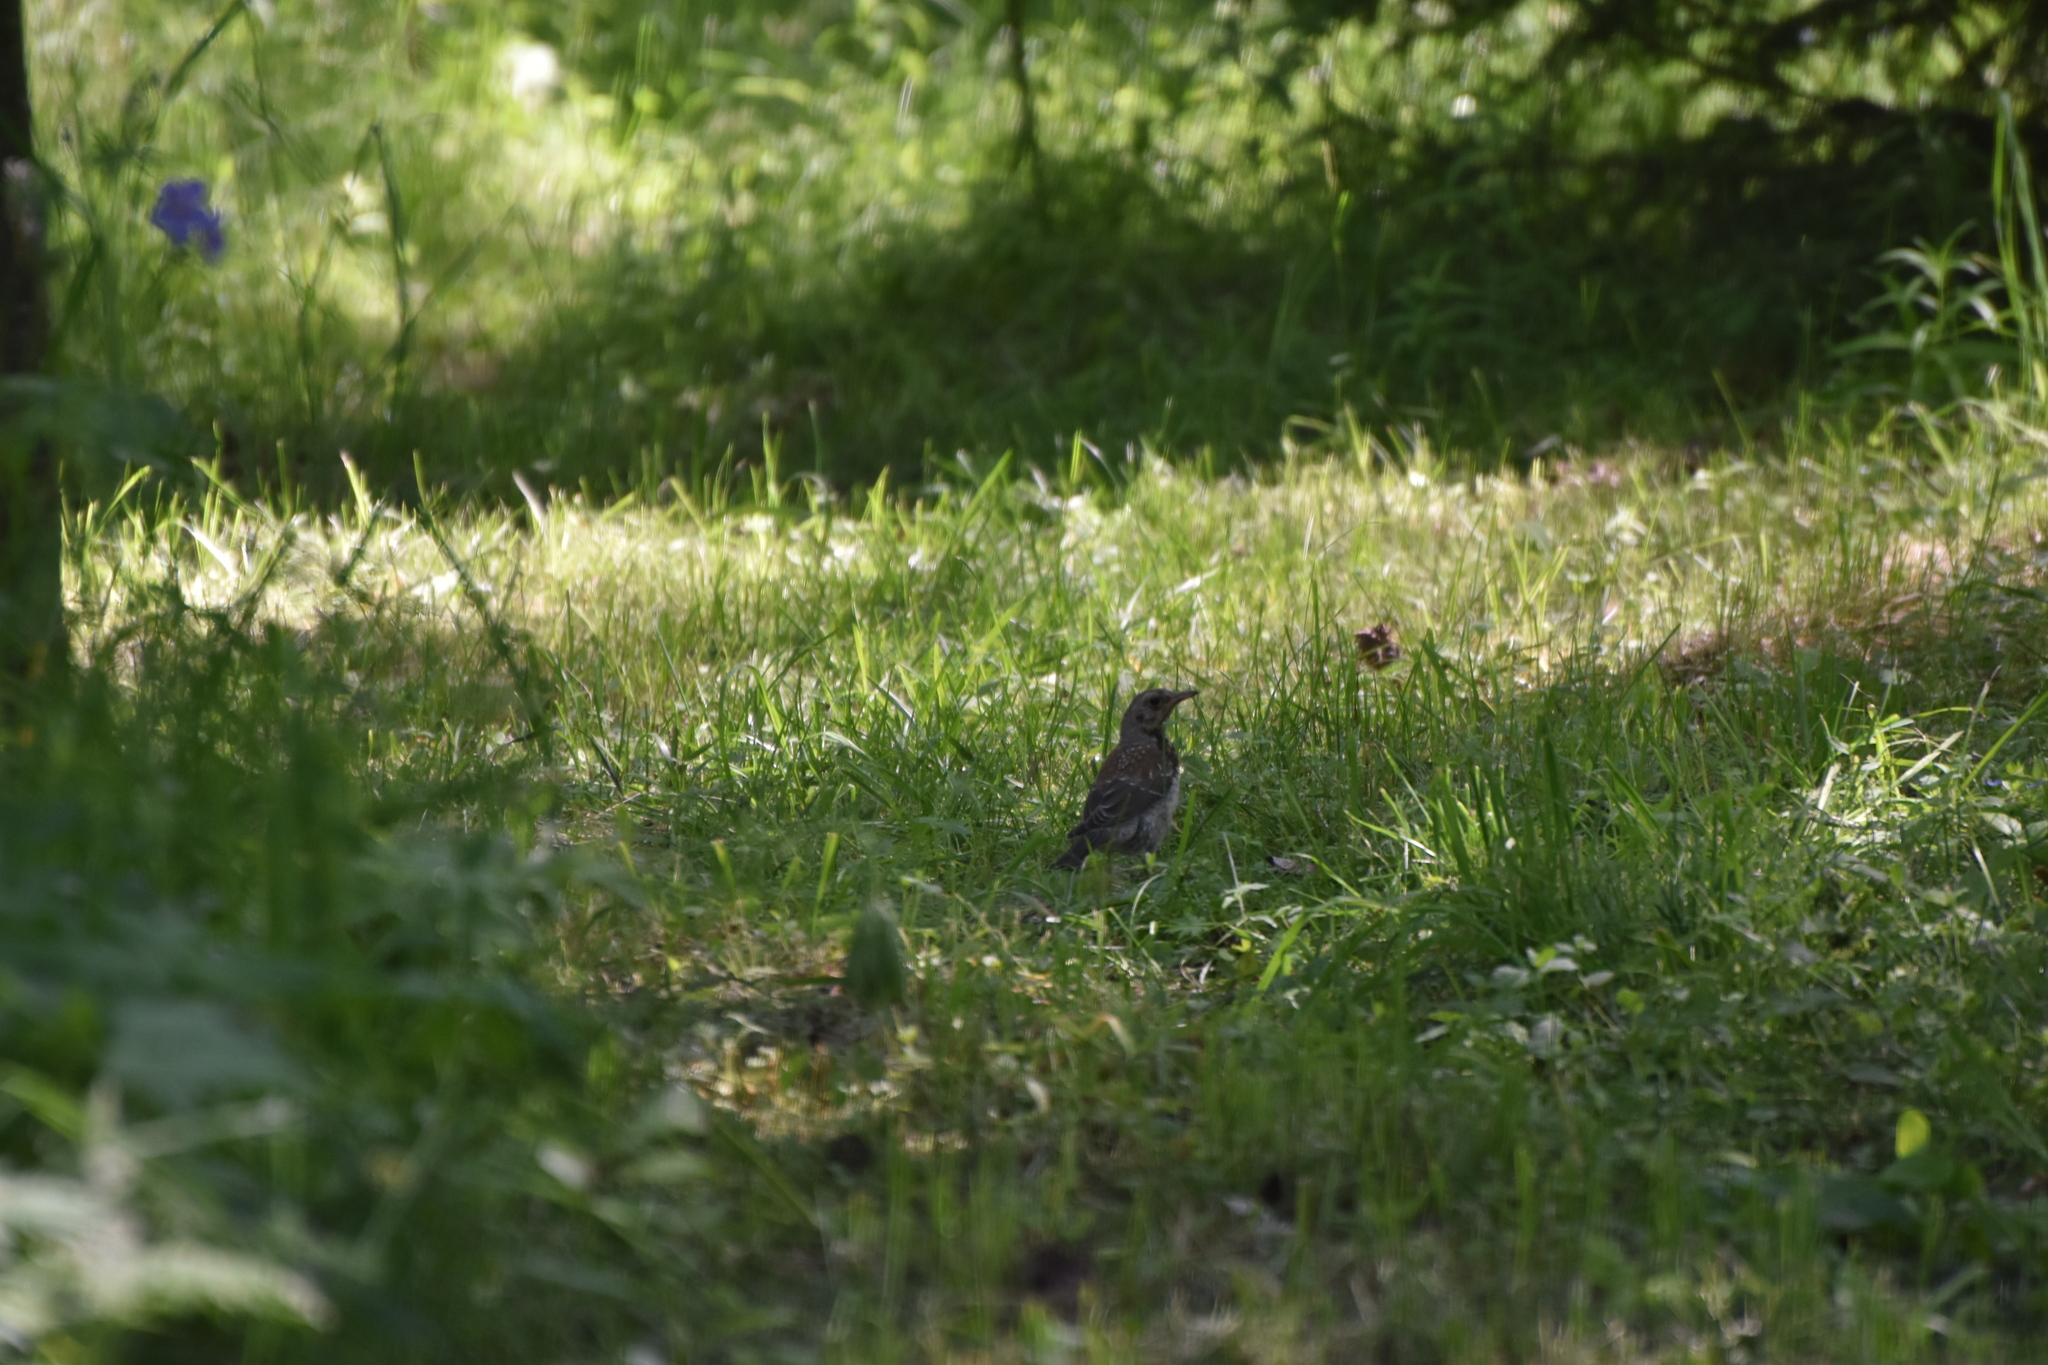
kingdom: Animalia
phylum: Chordata
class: Aves
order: Passeriformes
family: Turdidae
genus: Turdus
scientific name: Turdus pilaris
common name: Fieldfare
